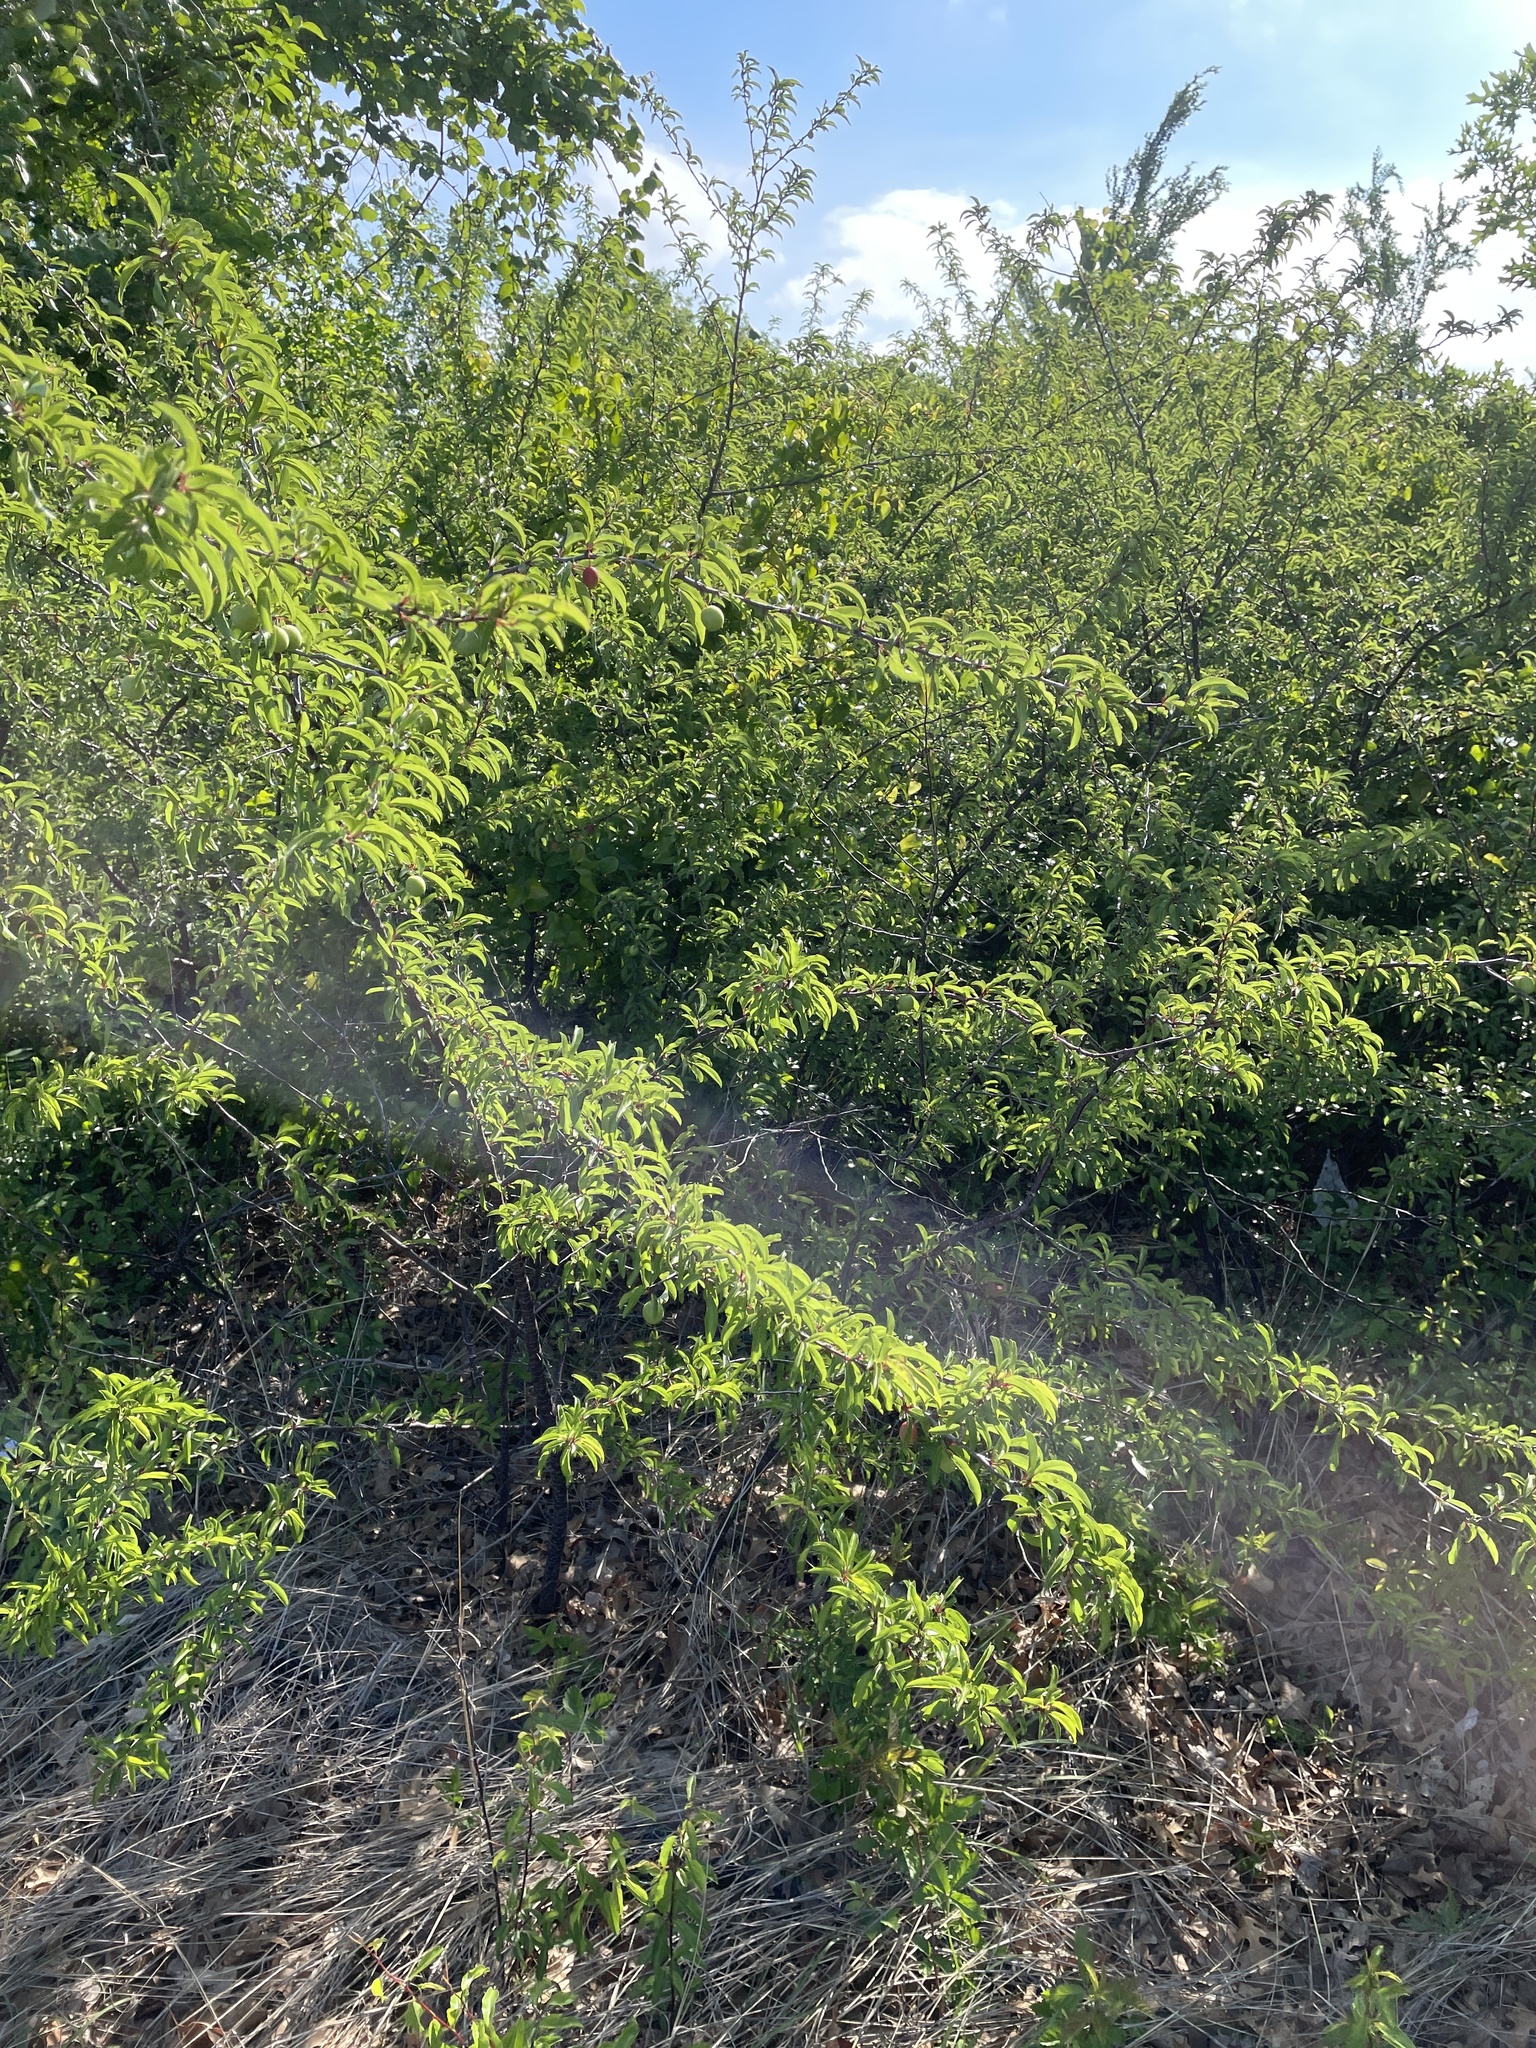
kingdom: Plantae
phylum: Tracheophyta
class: Magnoliopsida
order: Rosales
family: Rosaceae
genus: Prunus
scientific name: Prunus angustifolia
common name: Cherokee plum
